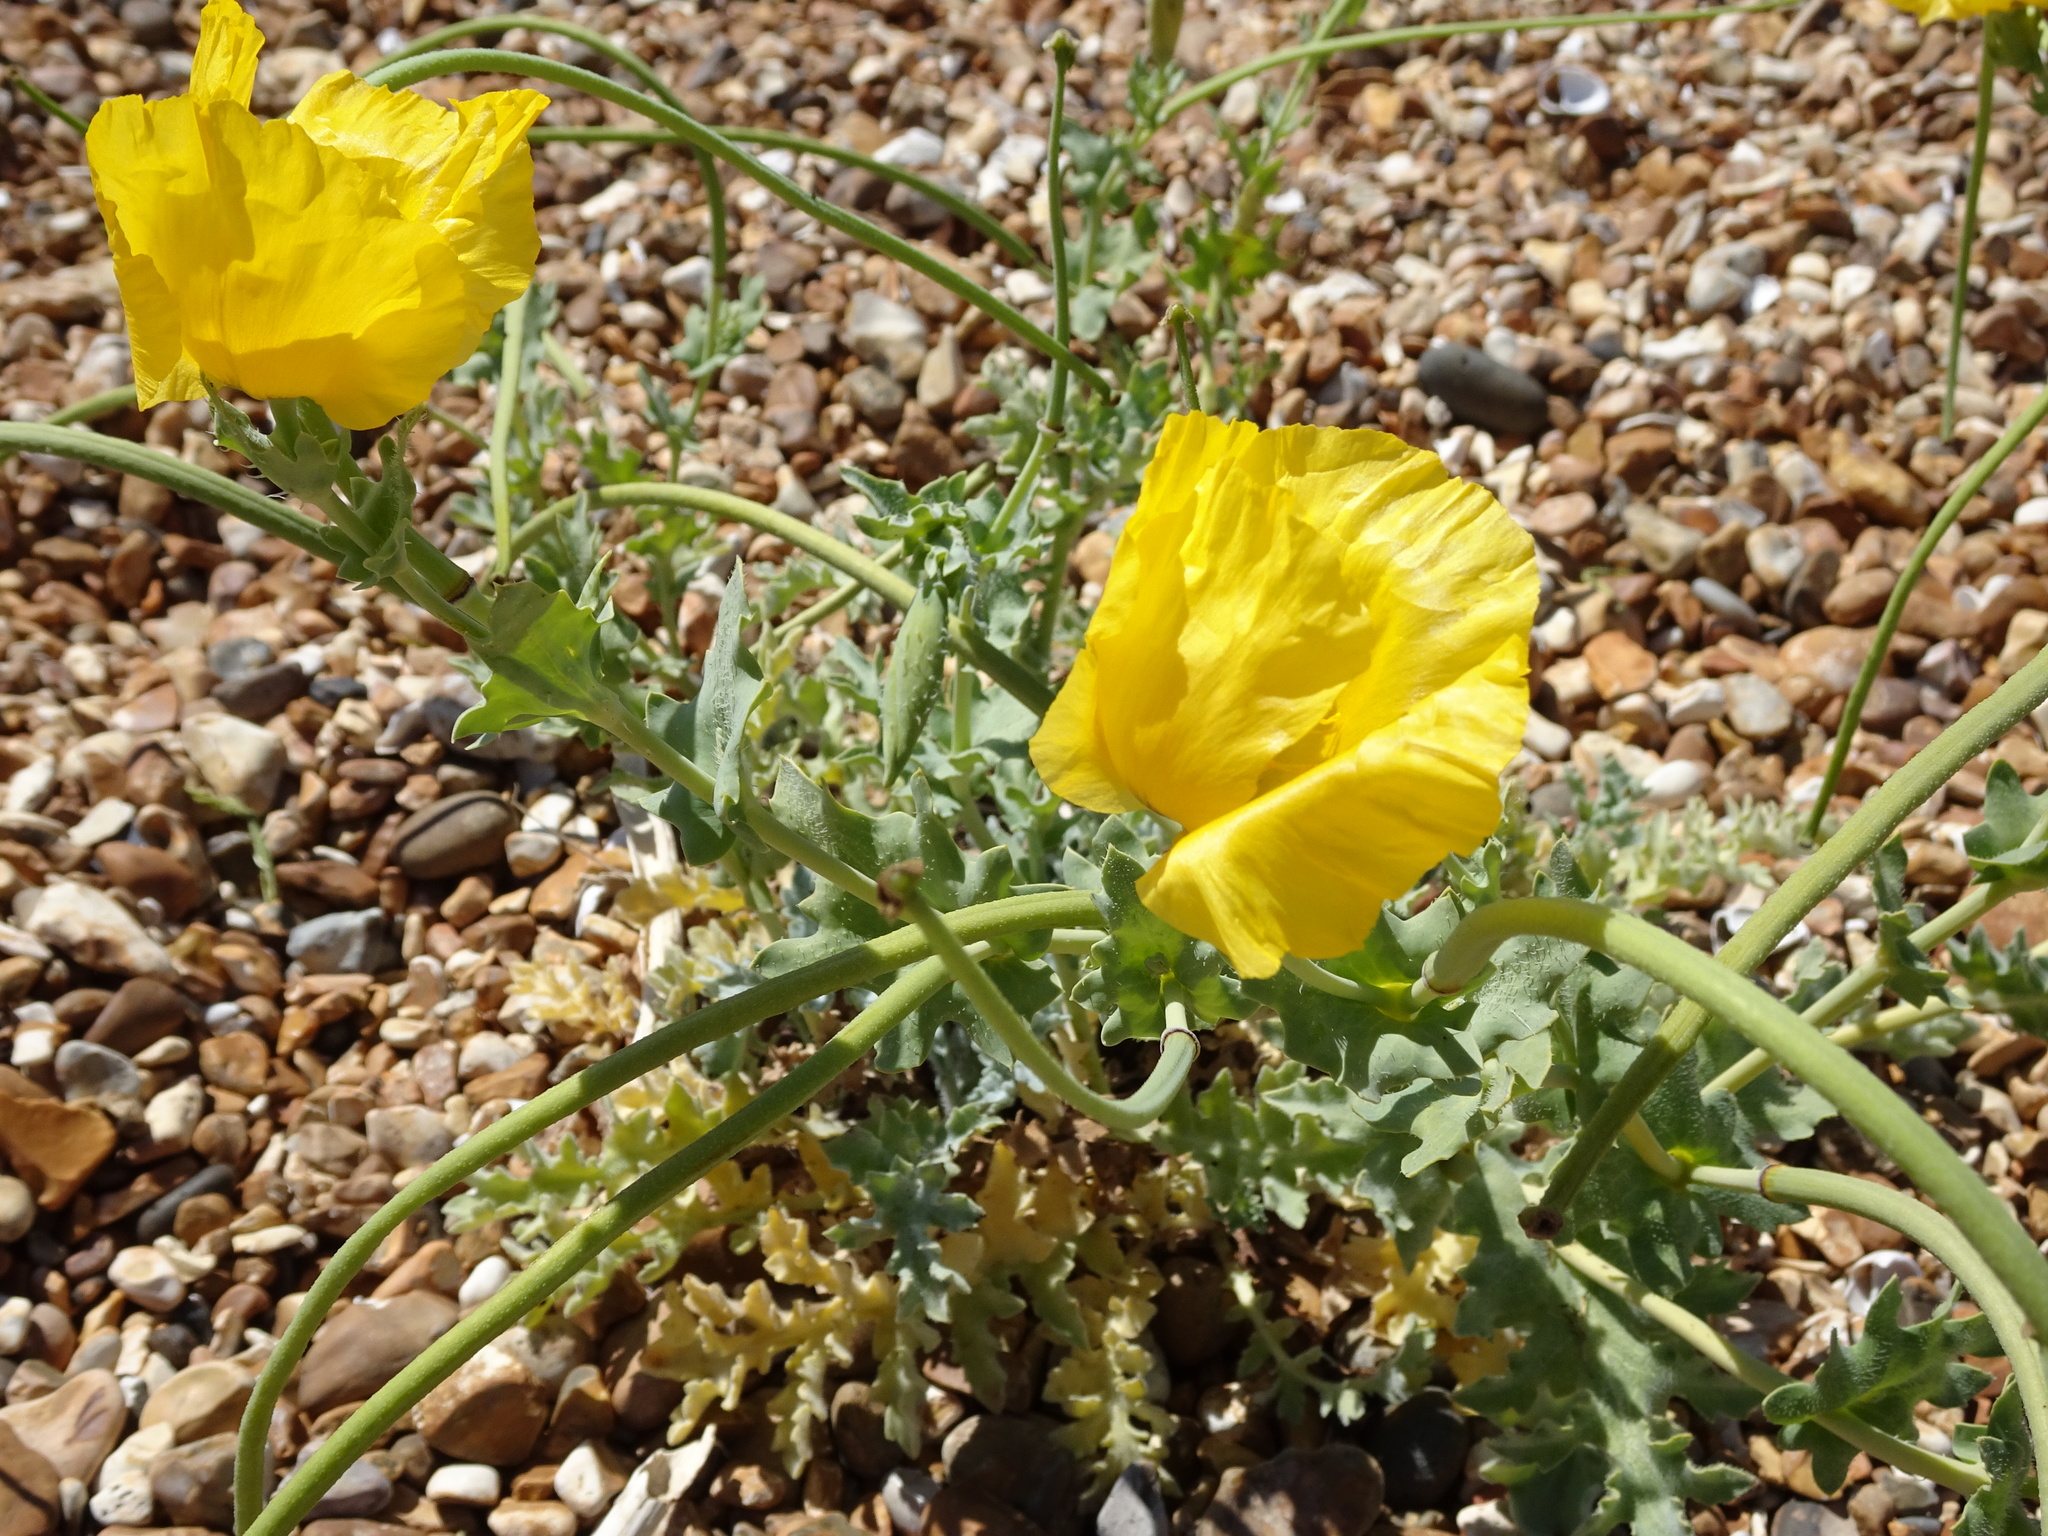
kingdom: Plantae
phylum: Tracheophyta
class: Magnoliopsida
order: Ranunculales
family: Papaveraceae
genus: Glaucium
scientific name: Glaucium flavum
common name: Yellow horned-poppy
